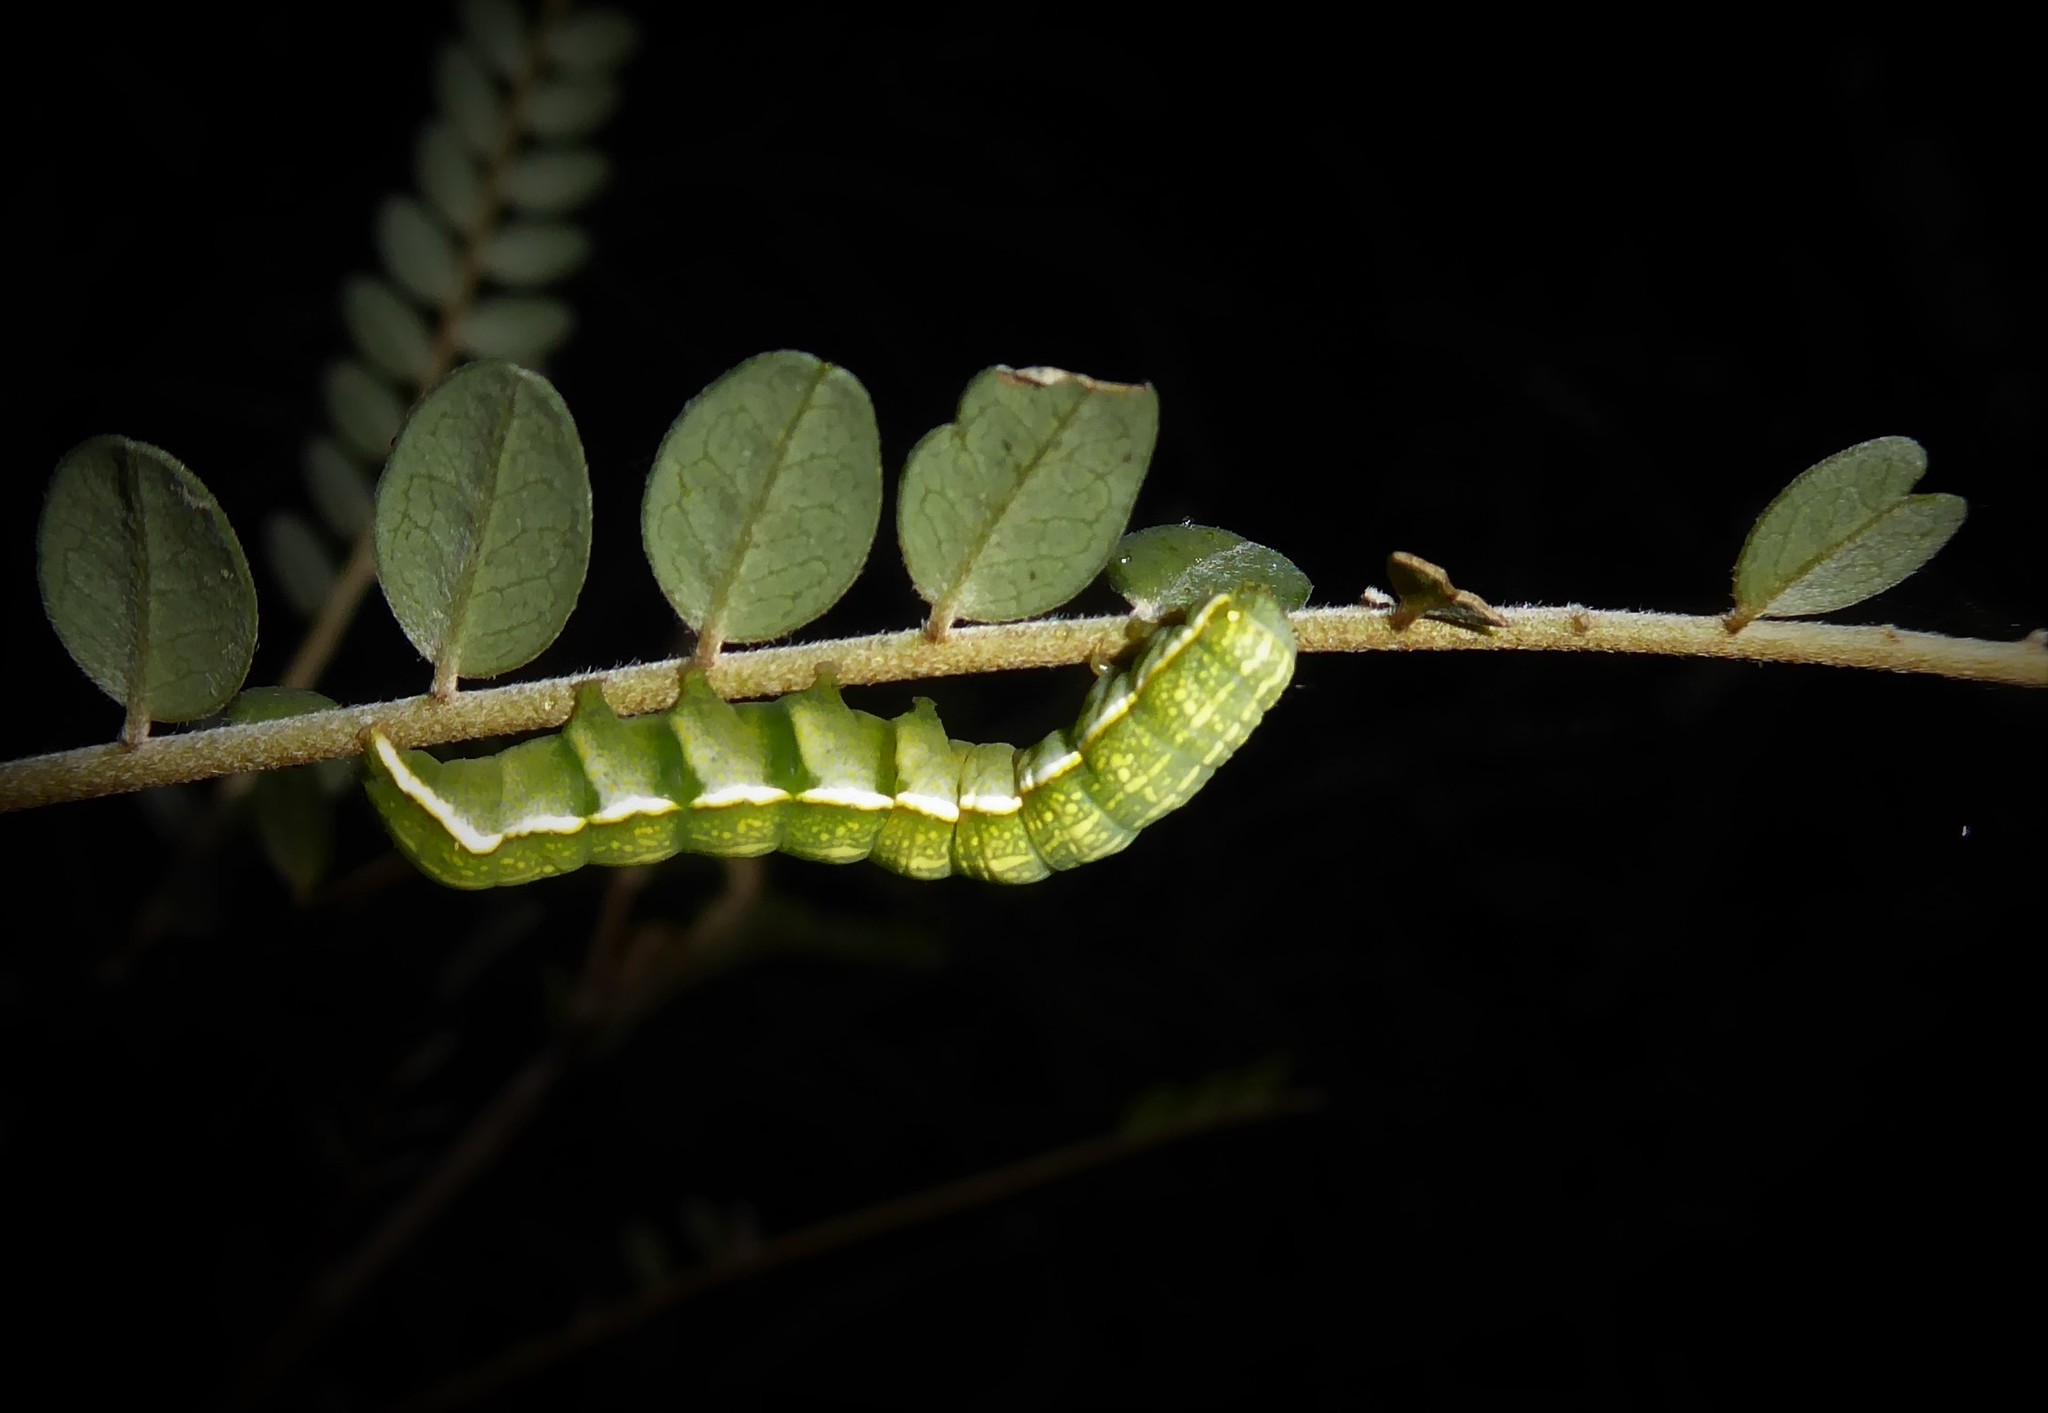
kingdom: Animalia
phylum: Arthropoda
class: Insecta
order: Lepidoptera
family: Noctuidae
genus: Meterana
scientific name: Meterana decorata
